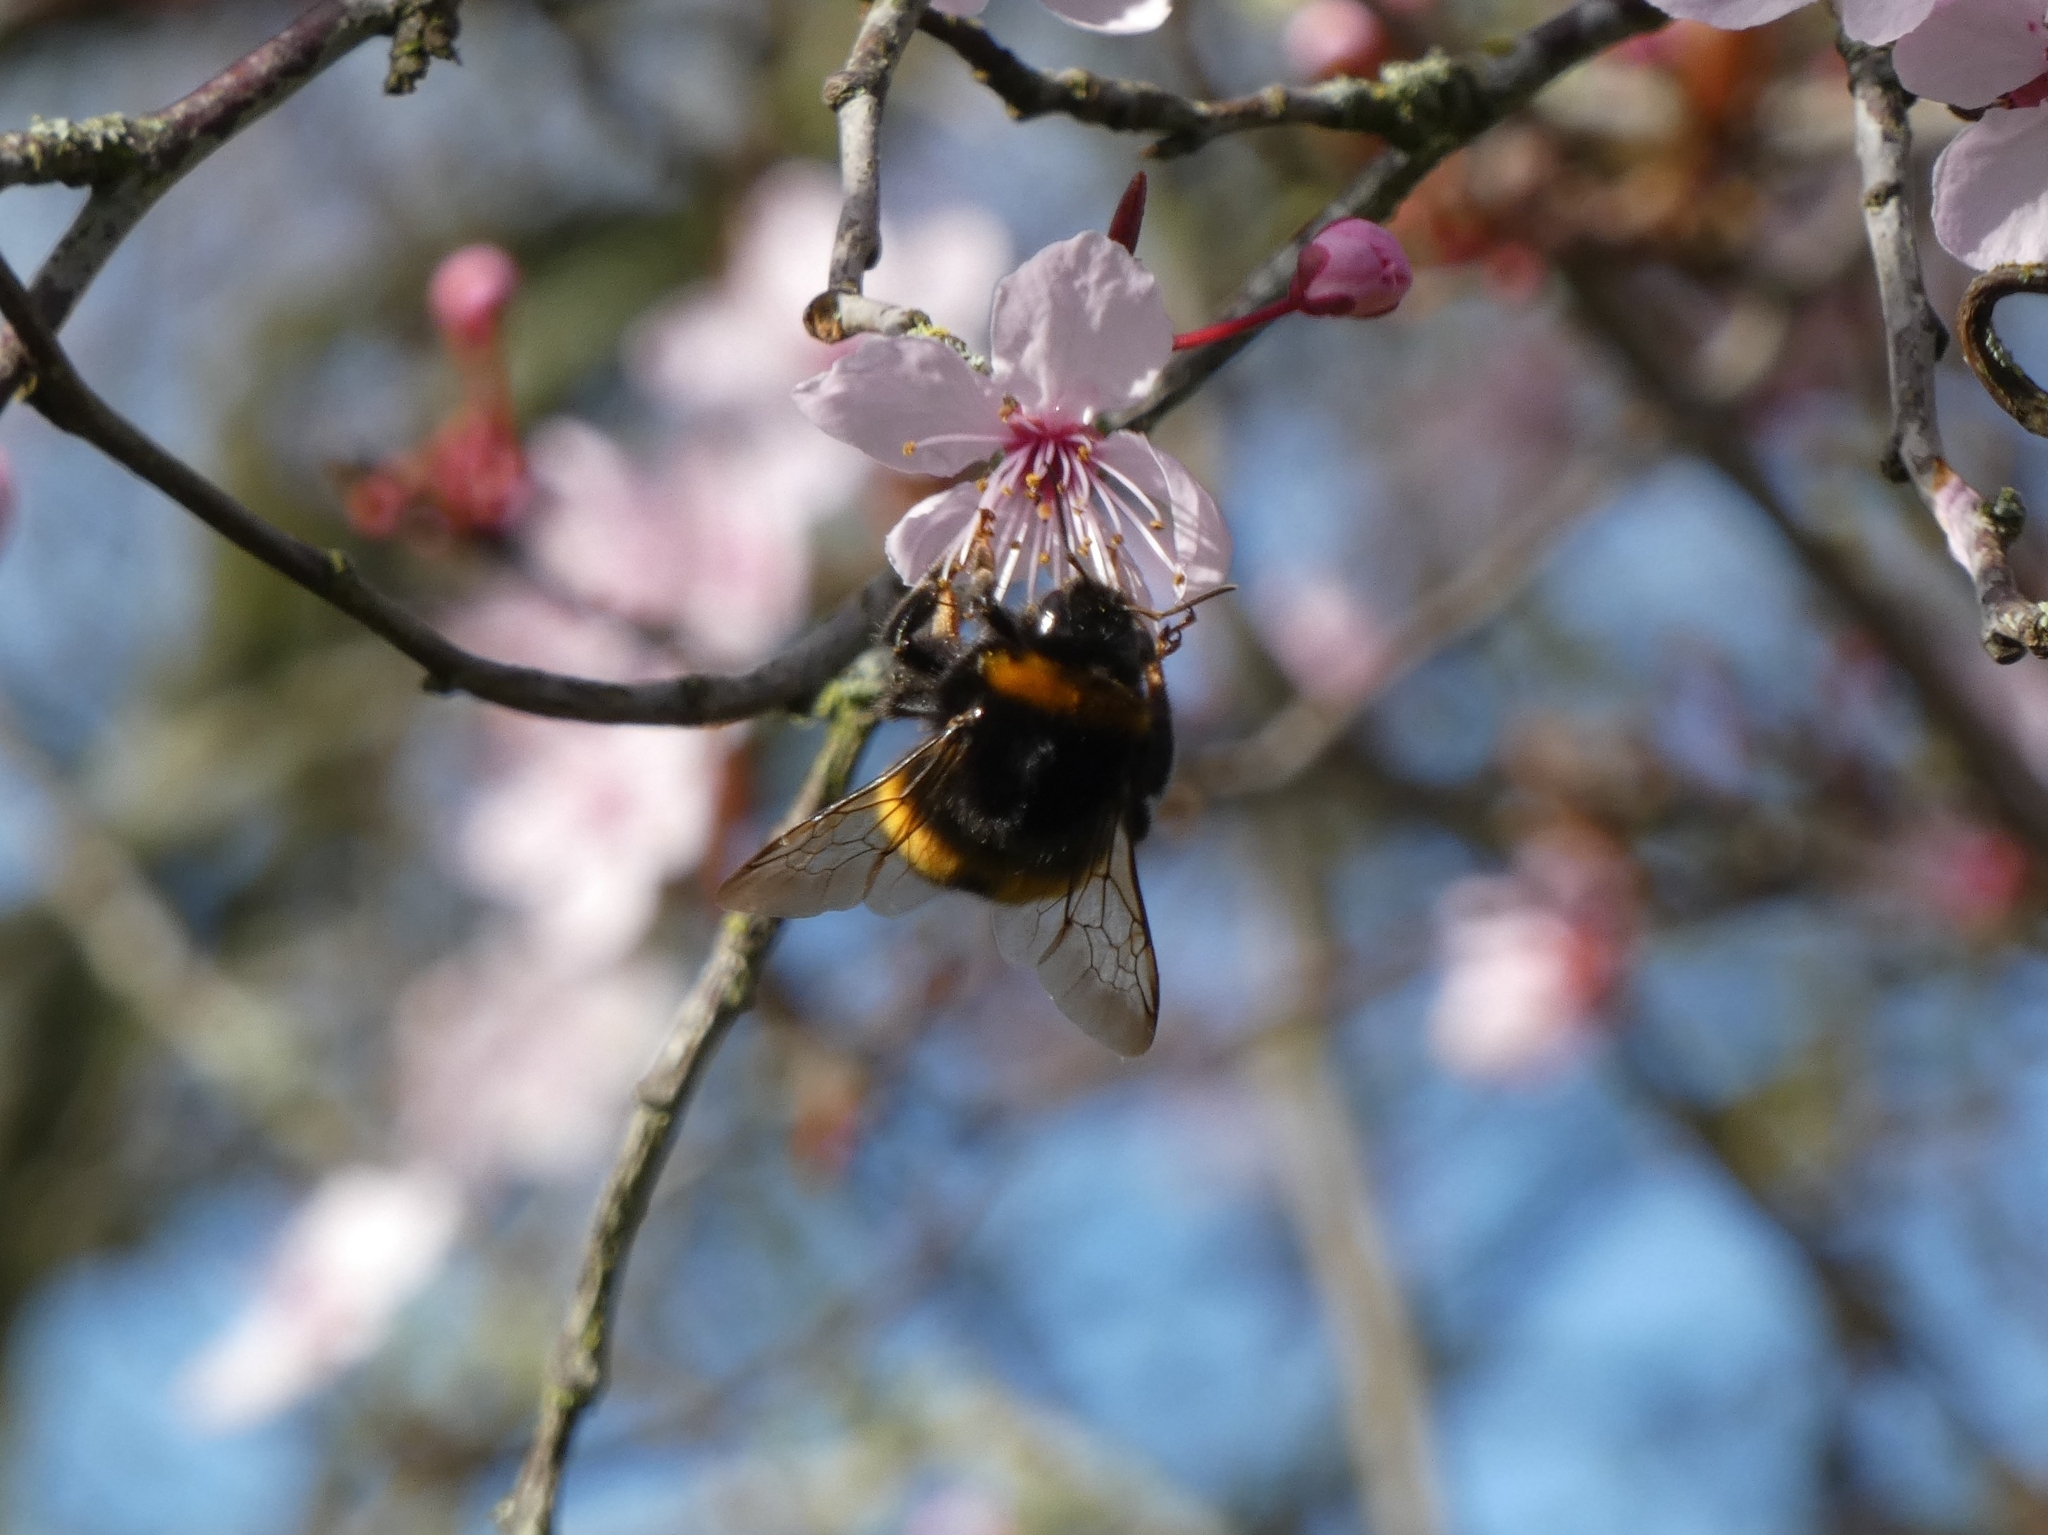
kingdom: Animalia
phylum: Arthropoda
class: Insecta
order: Hymenoptera
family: Apidae
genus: Bombus
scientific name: Bombus terrestris
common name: Buff-tailed bumblebee
